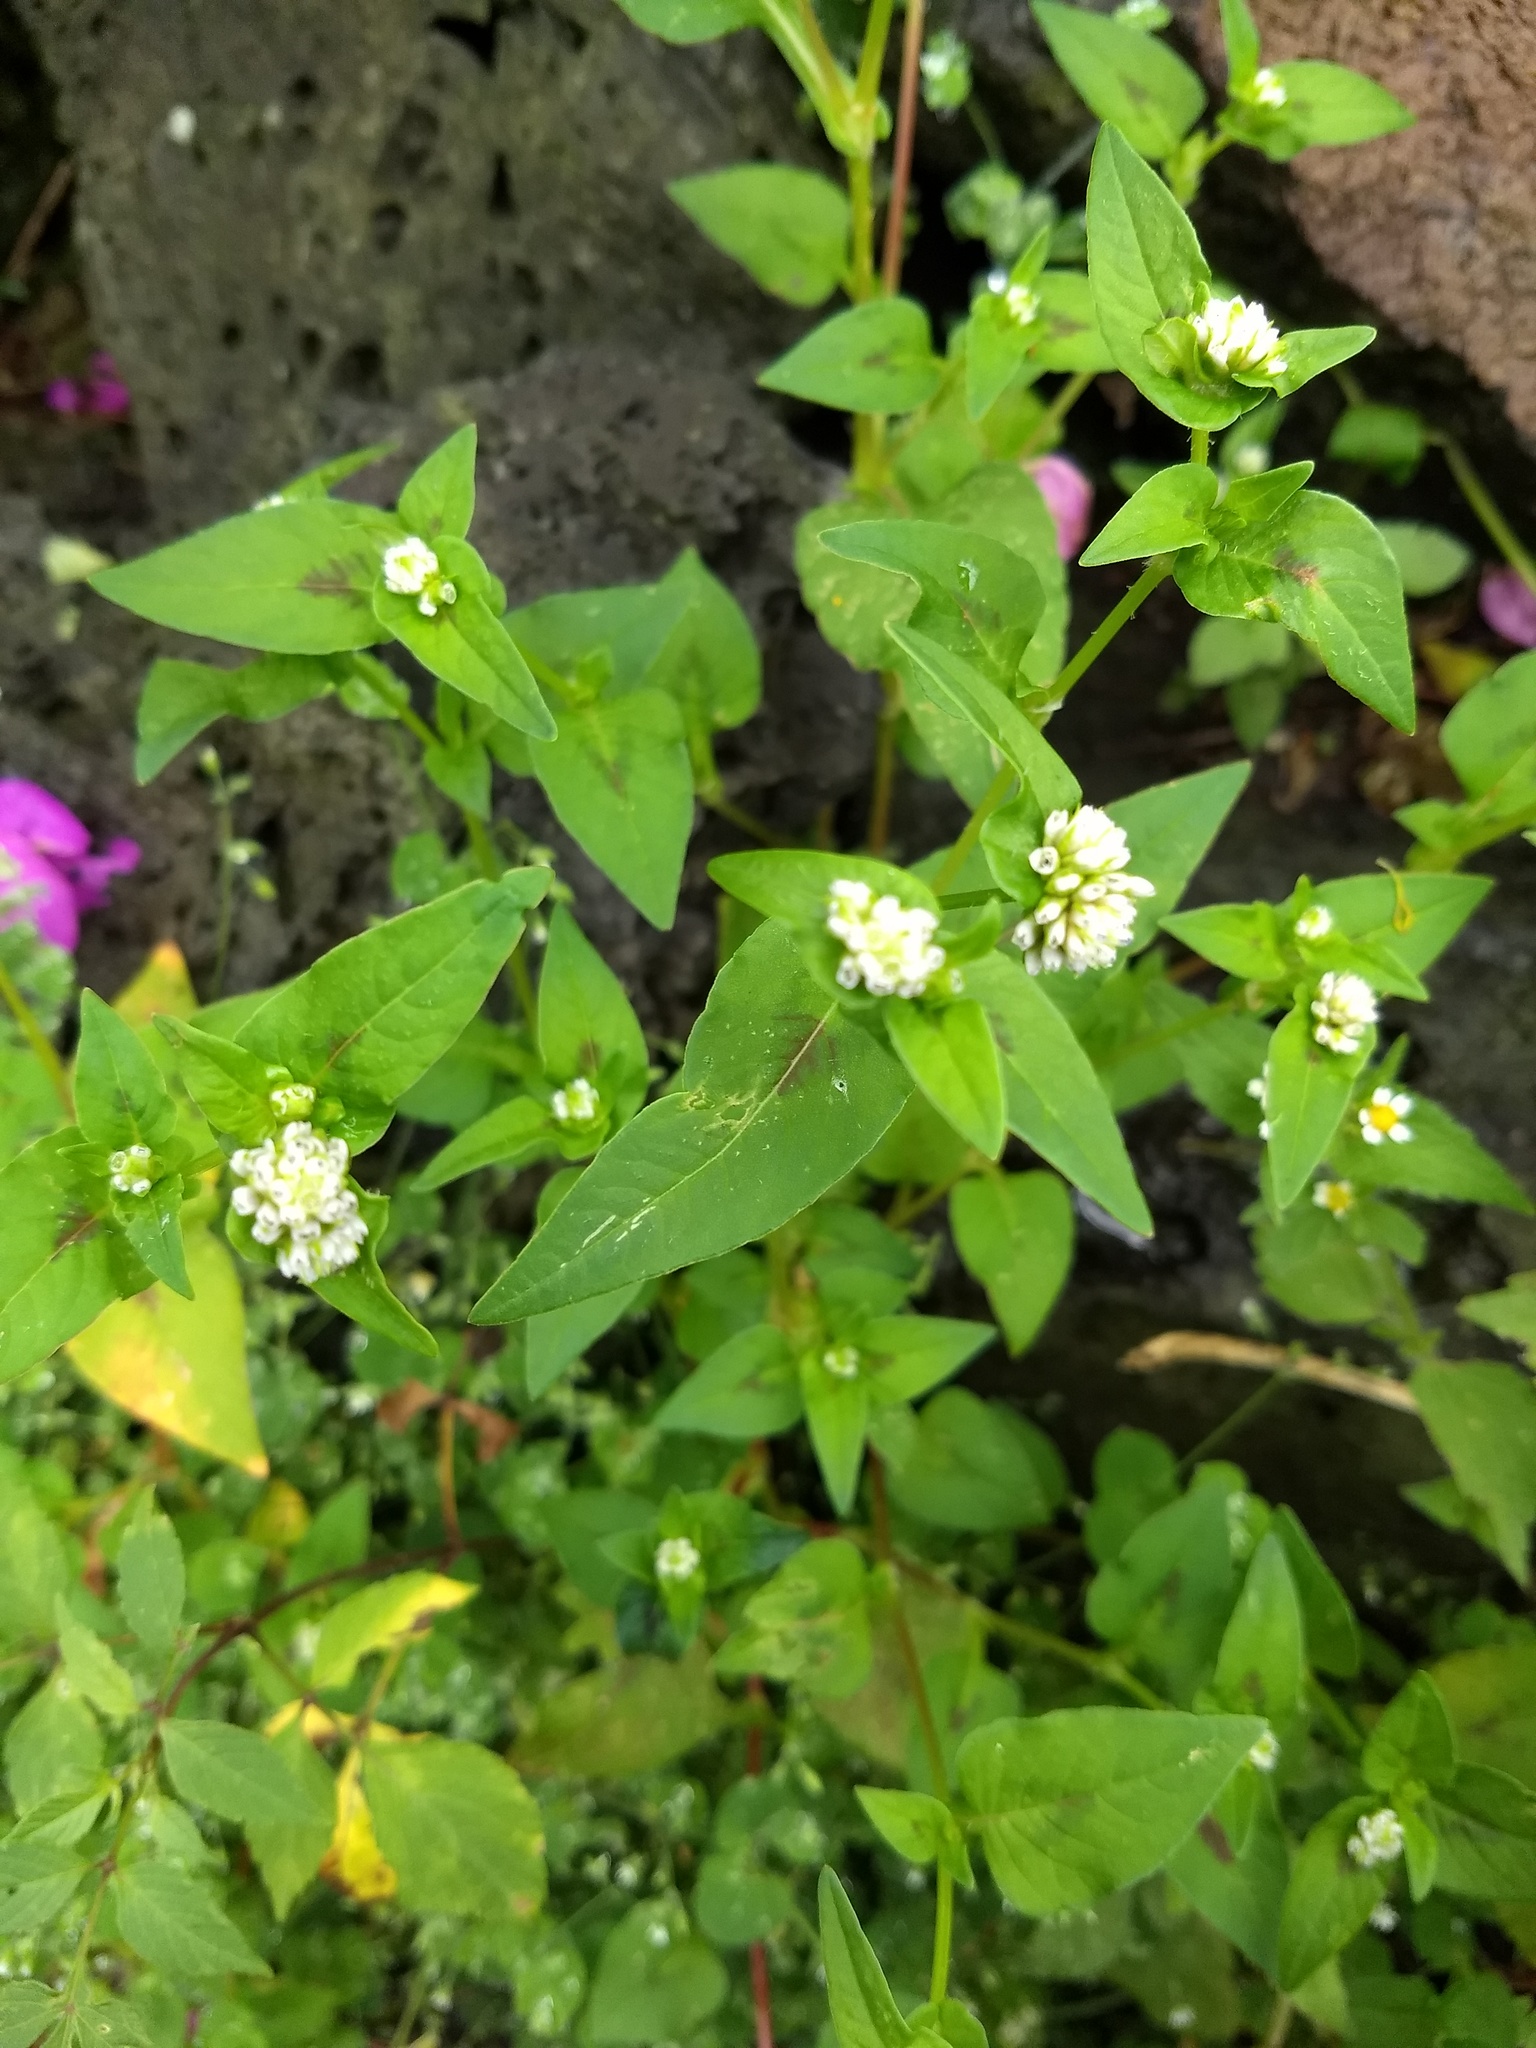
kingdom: Plantae
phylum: Tracheophyta
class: Magnoliopsida
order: Caryophyllales
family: Polygonaceae
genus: Persicaria
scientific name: Persicaria nepalensis
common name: Nepal persicaria
